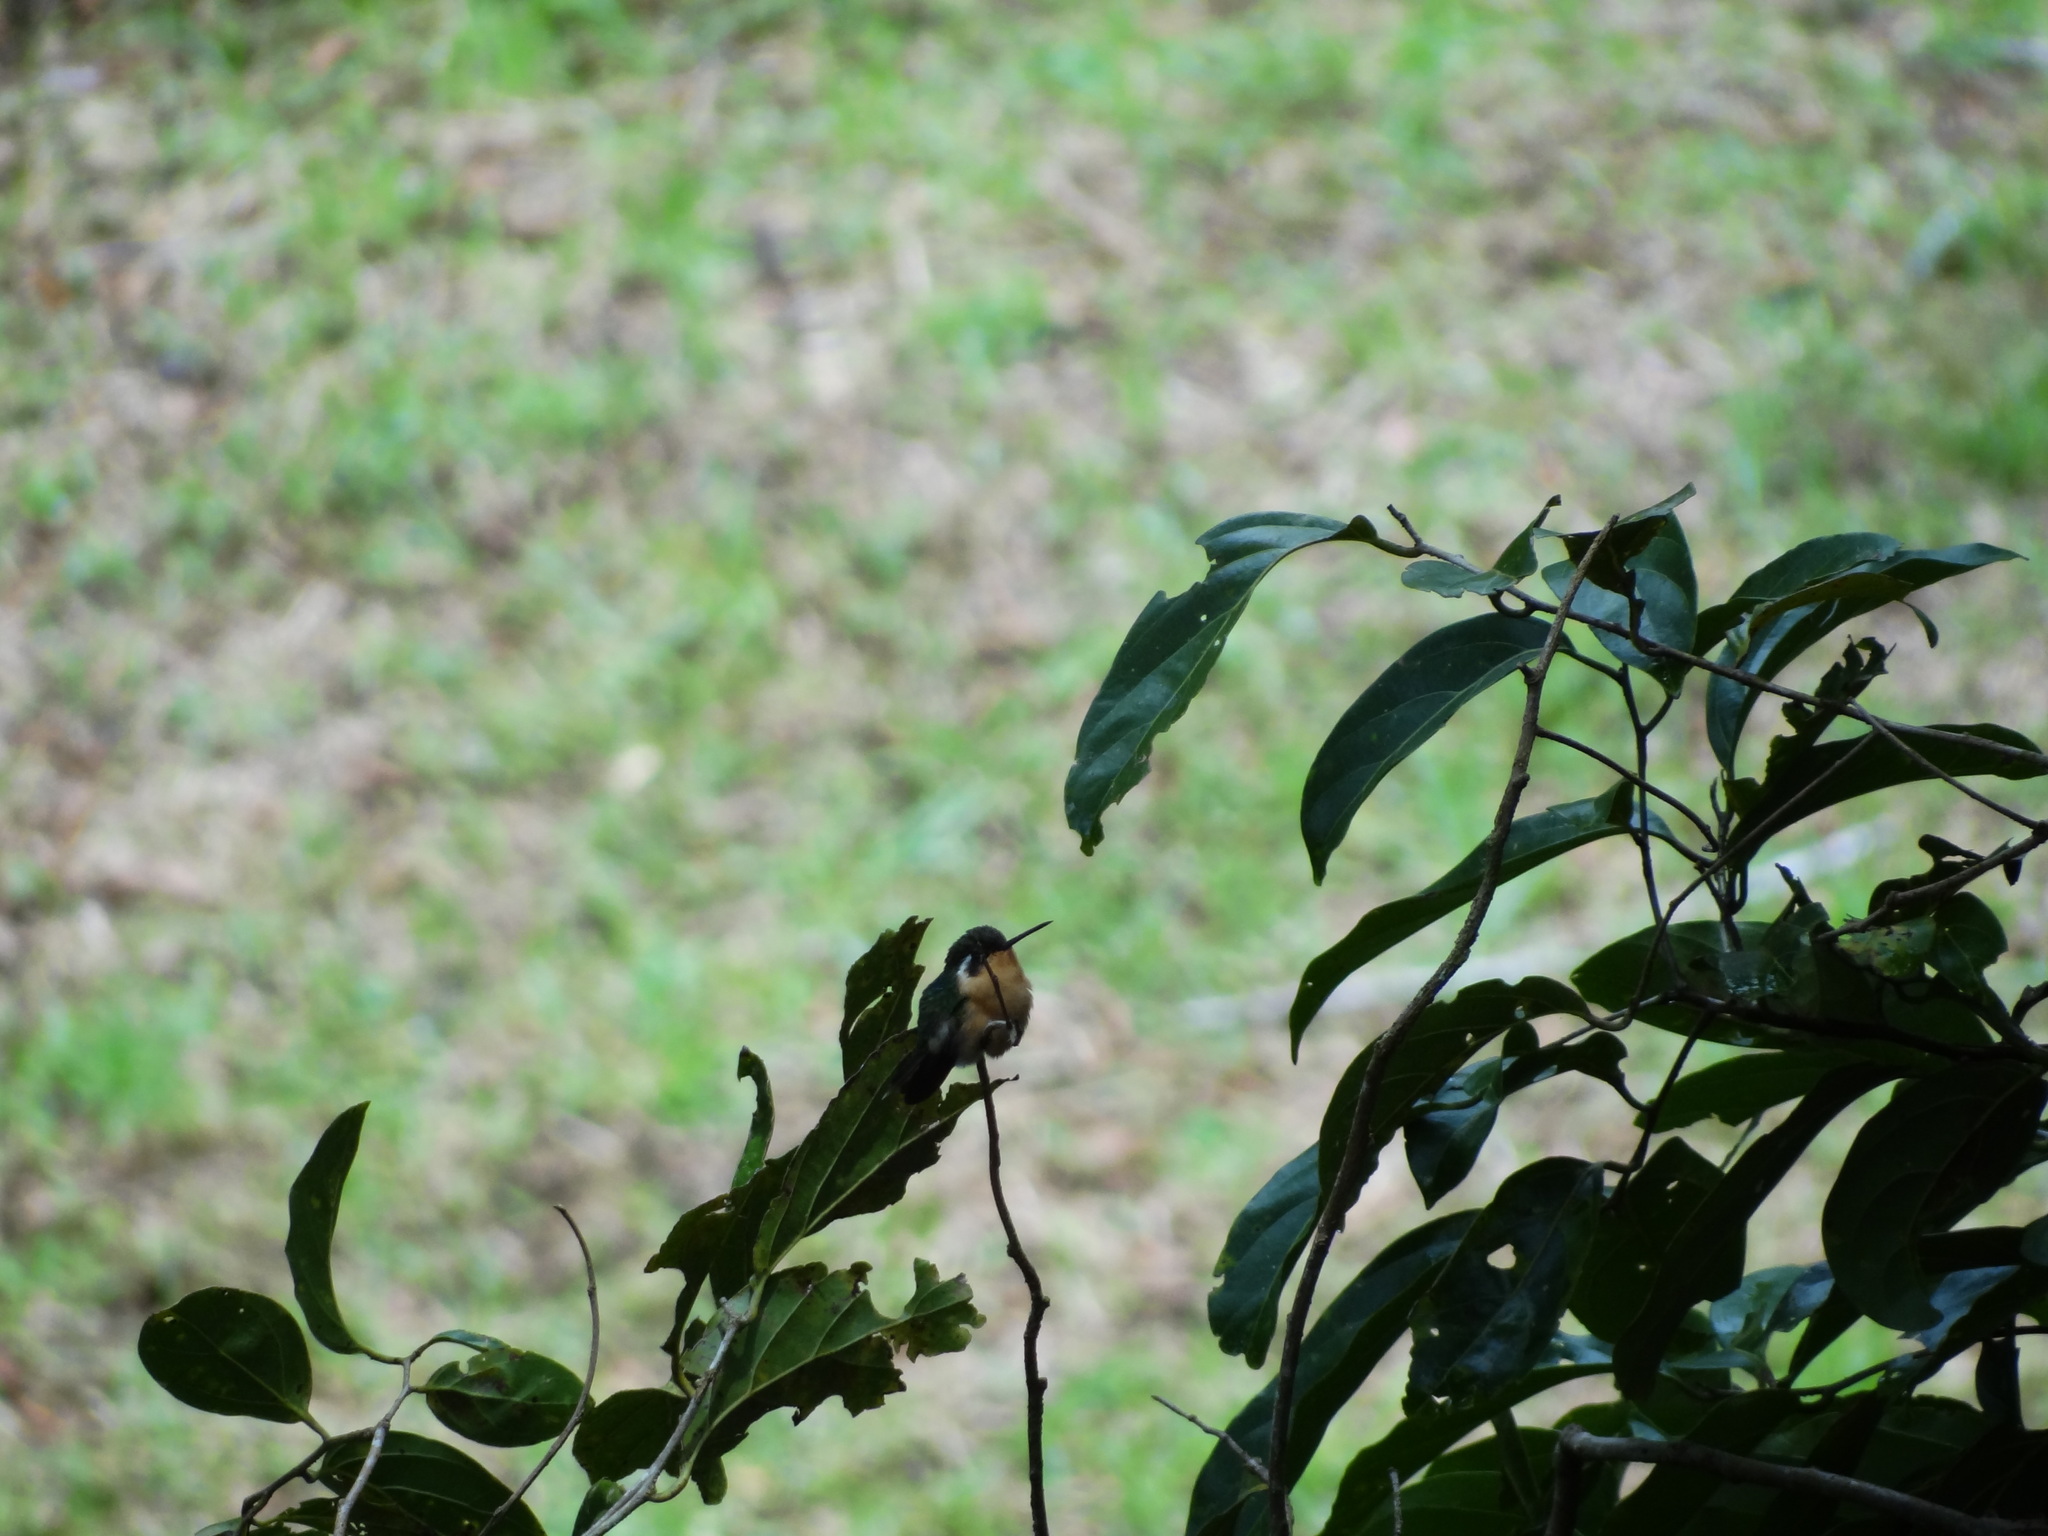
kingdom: Animalia
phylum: Chordata
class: Aves
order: Apodiformes
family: Trochilidae
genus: Lampornis
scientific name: Lampornis cinereicauda
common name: Grey-tailed mountaingem
